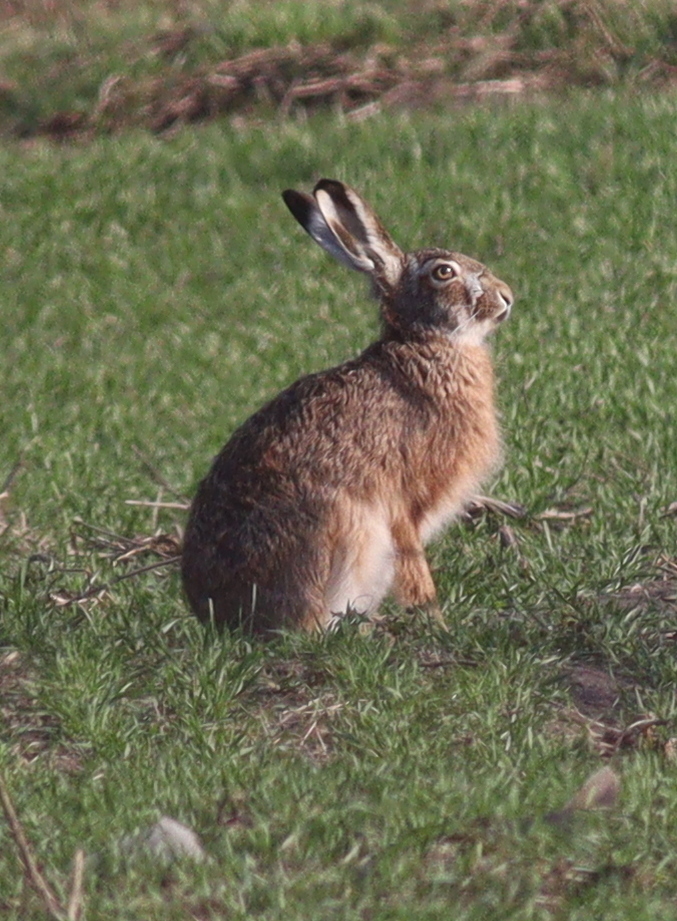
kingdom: Animalia
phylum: Chordata
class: Mammalia
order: Lagomorpha
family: Leporidae
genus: Lepus
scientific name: Lepus europaeus
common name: European hare
